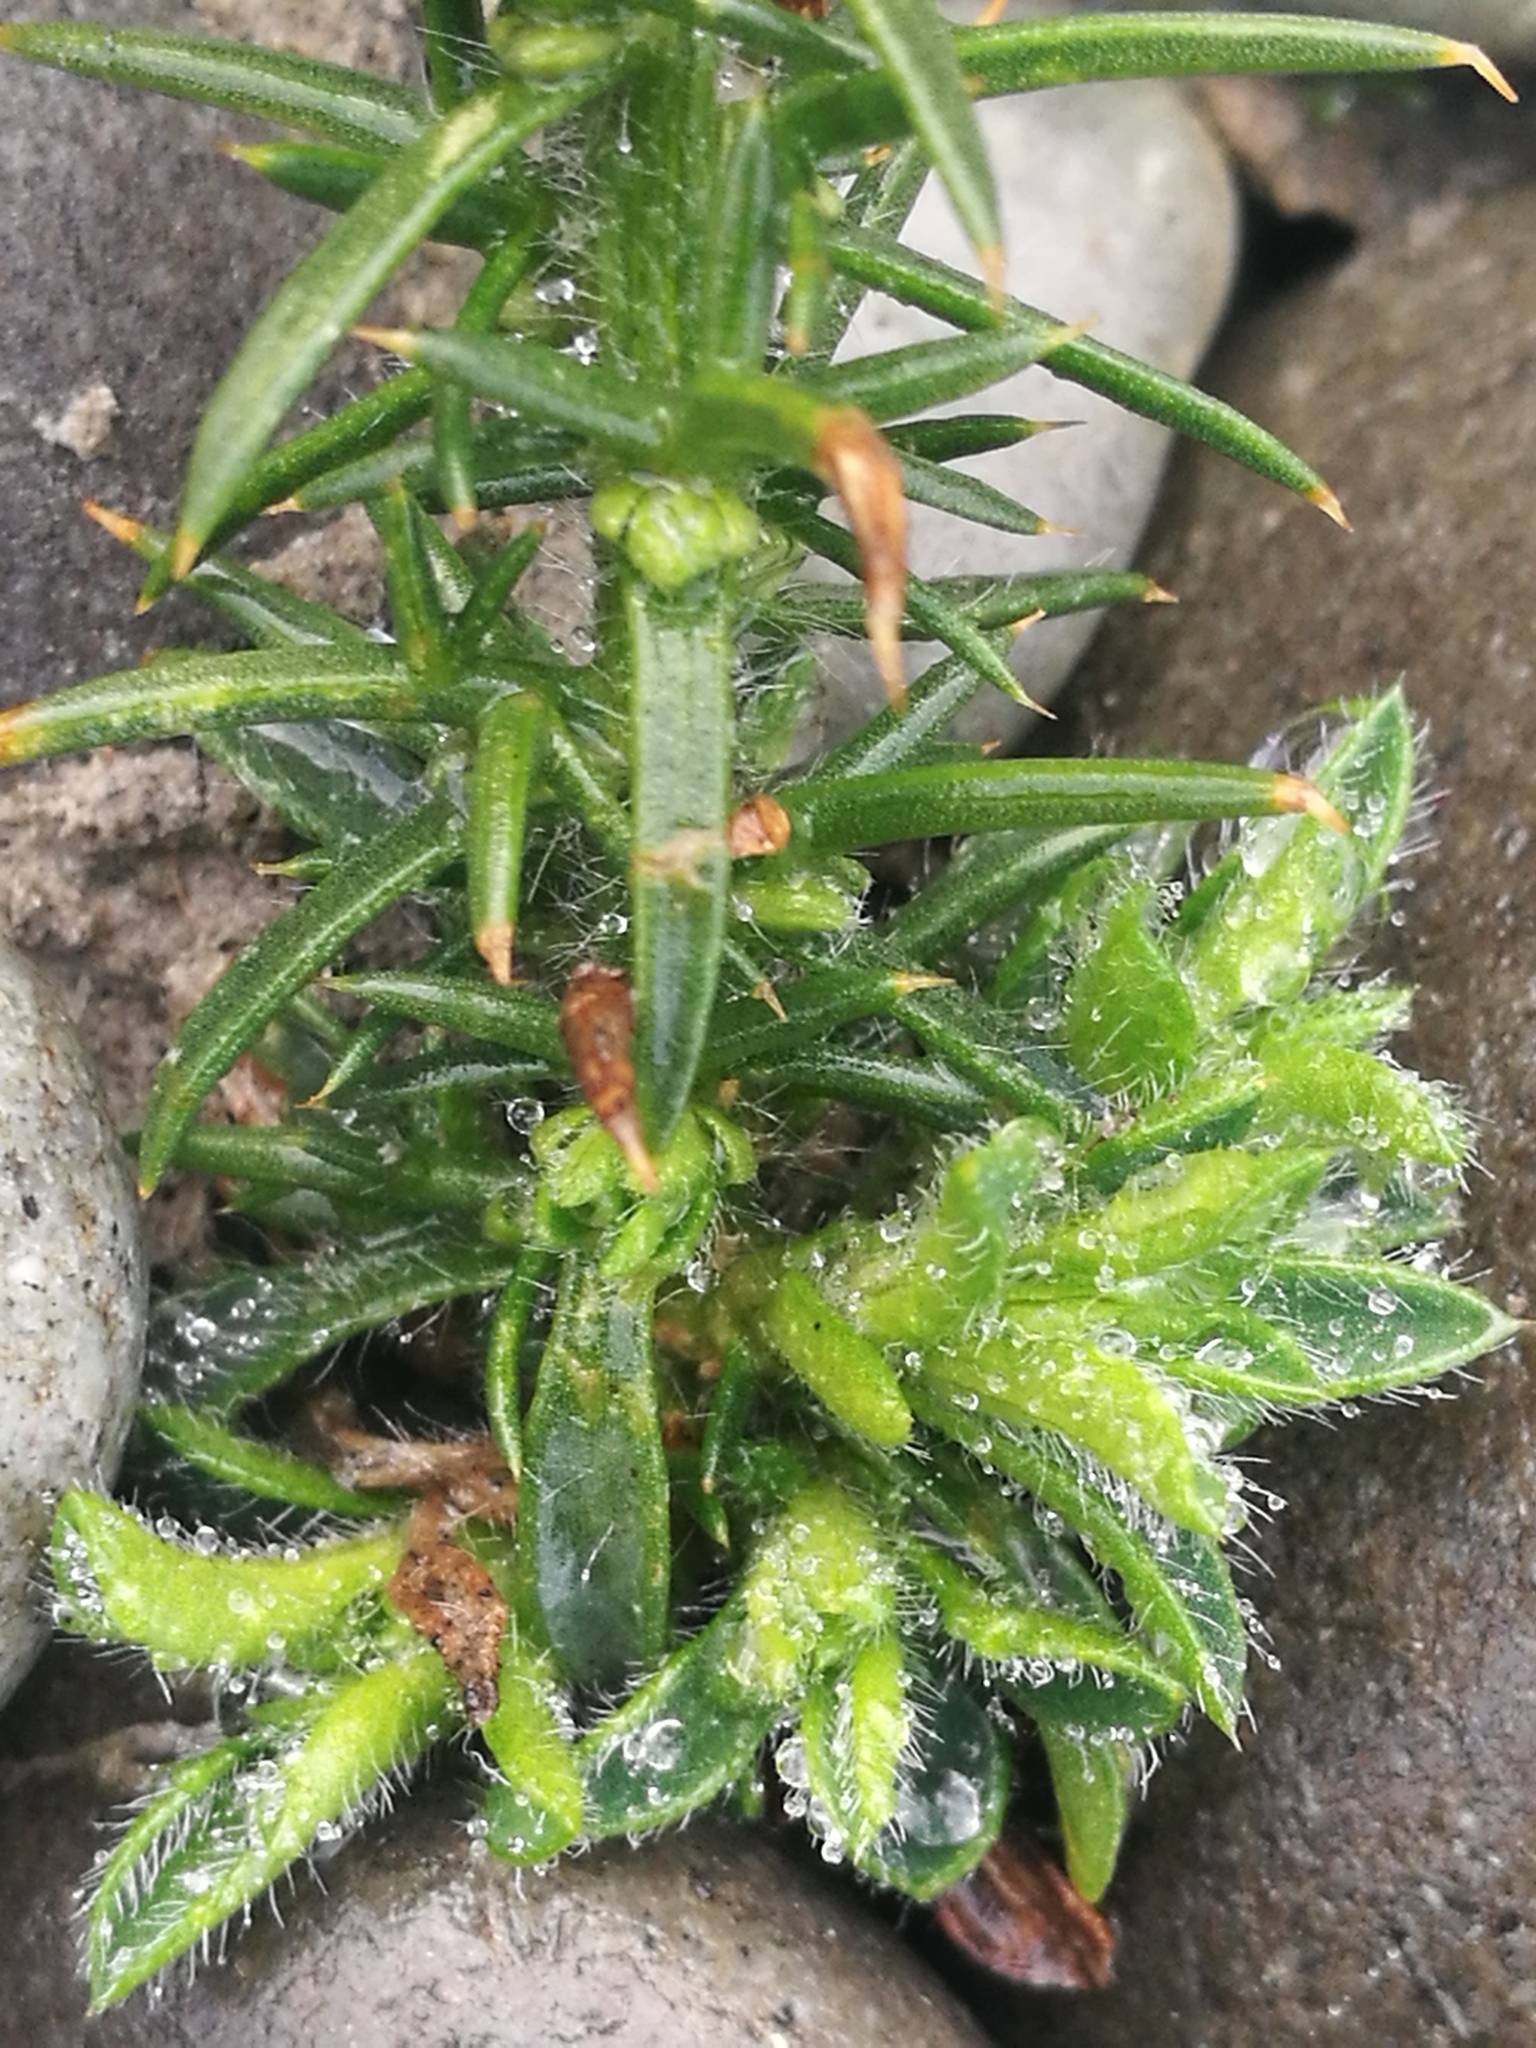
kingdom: Plantae
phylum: Tracheophyta
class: Magnoliopsida
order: Fabales
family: Fabaceae
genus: Ulex
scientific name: Ulex europaeus
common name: Common gorse
